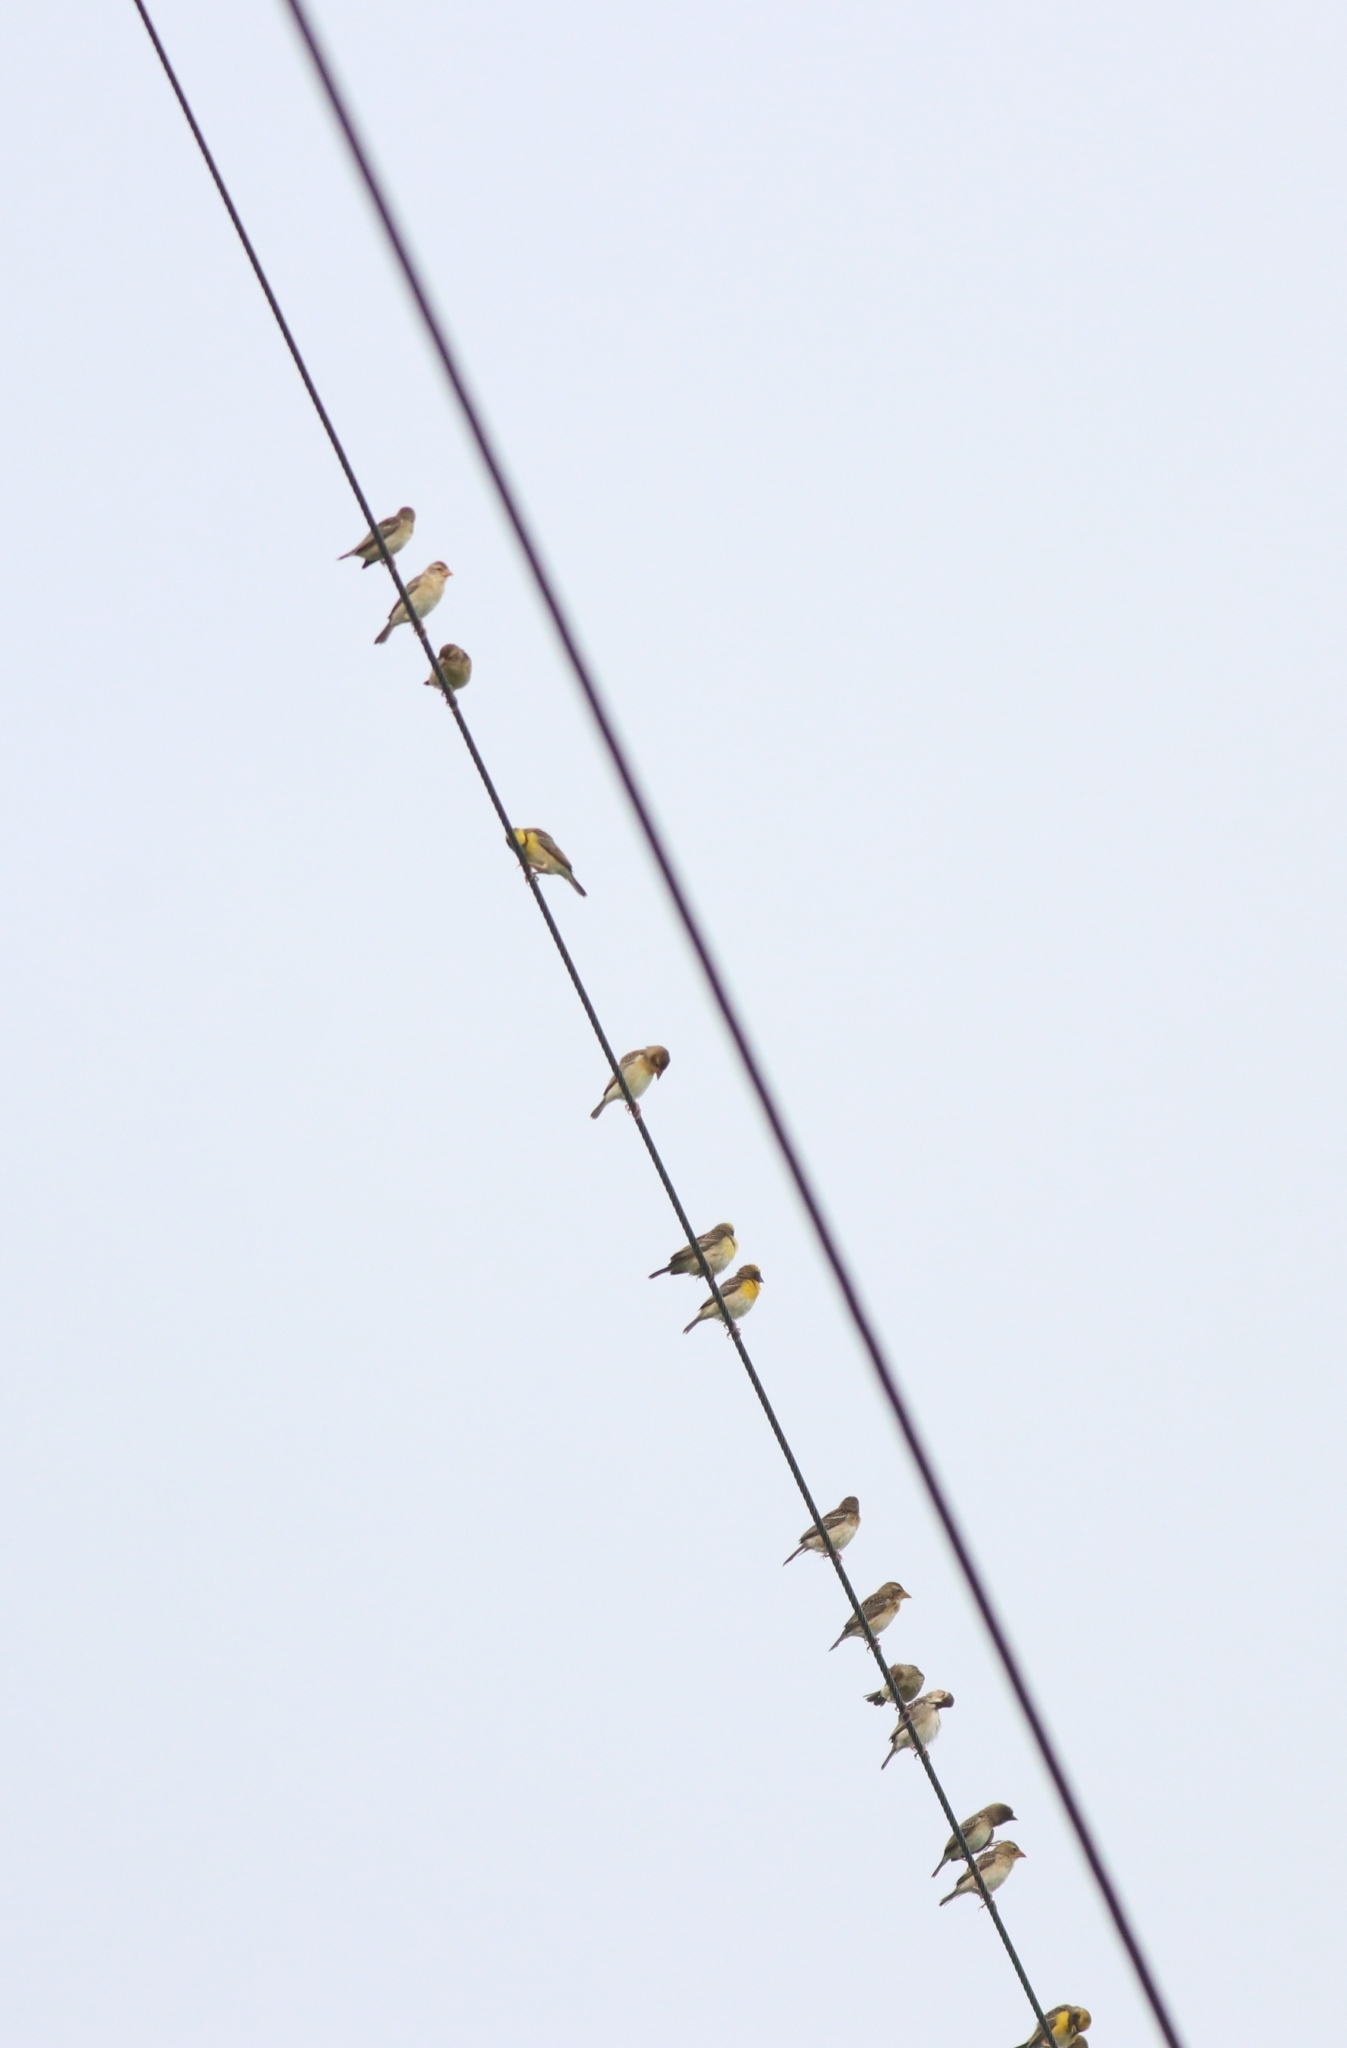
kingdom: Animalia
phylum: Chordata
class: Aves
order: Passeriformes
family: Ploceidae
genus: Ploceus
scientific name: Ploceus philippinus
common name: Baya weaver
